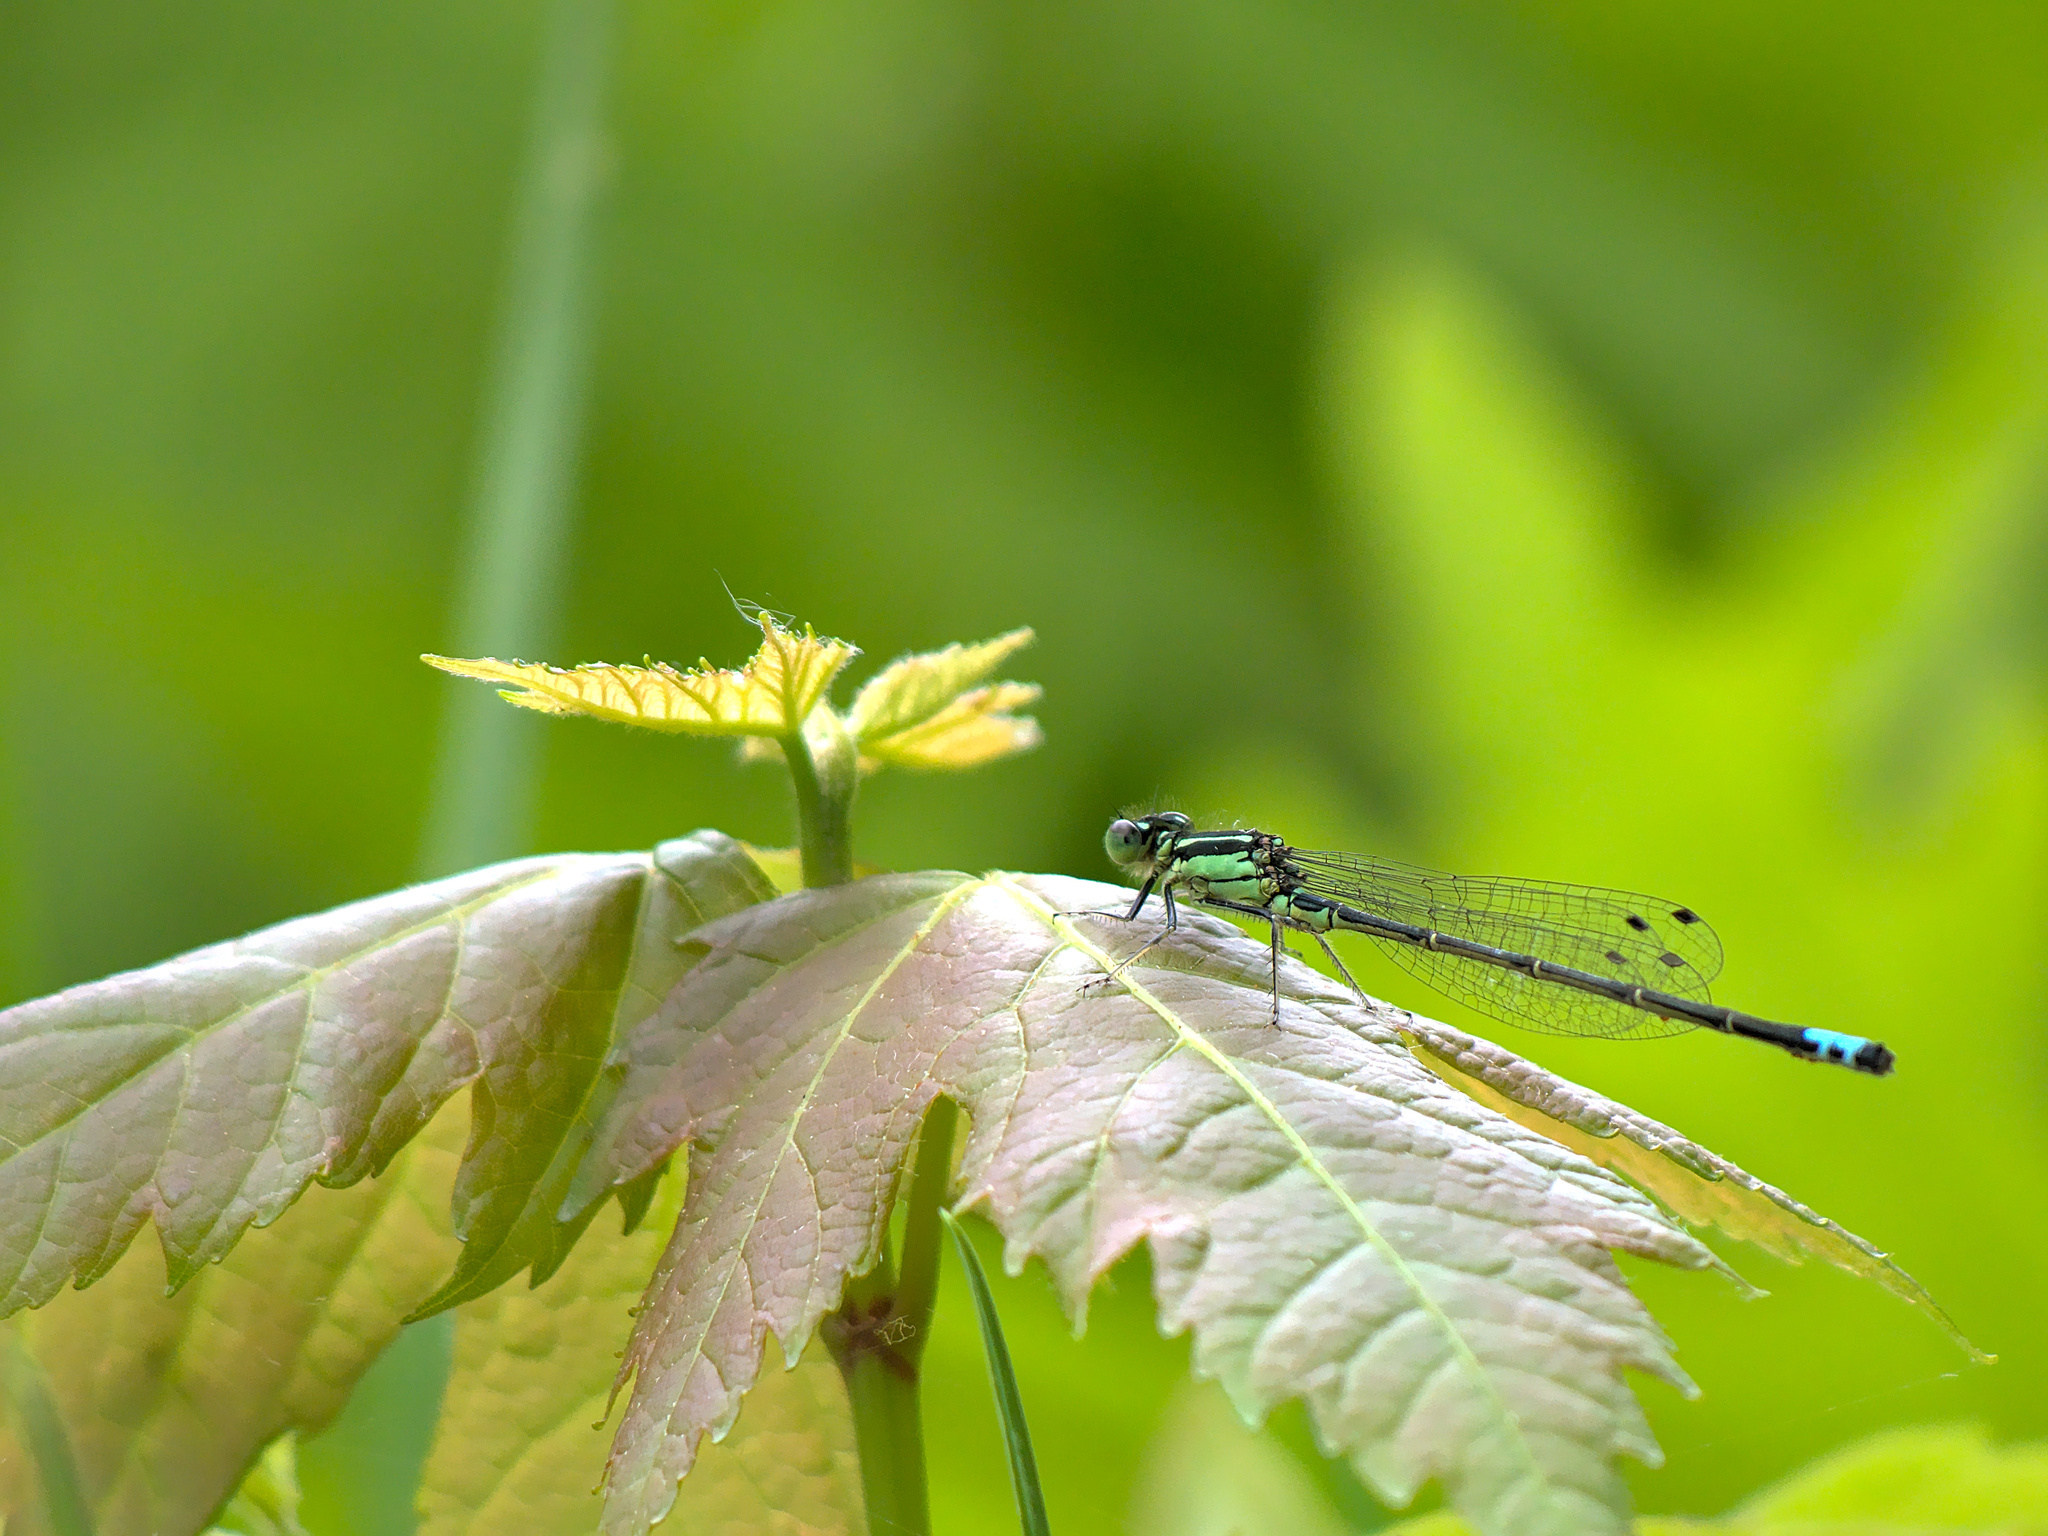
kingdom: Animalia
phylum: Arthropoda
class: Insecta
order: Odonata
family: Coenagrionidae
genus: Ischnura
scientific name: Ischnura verticalis
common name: Eastern forktail
